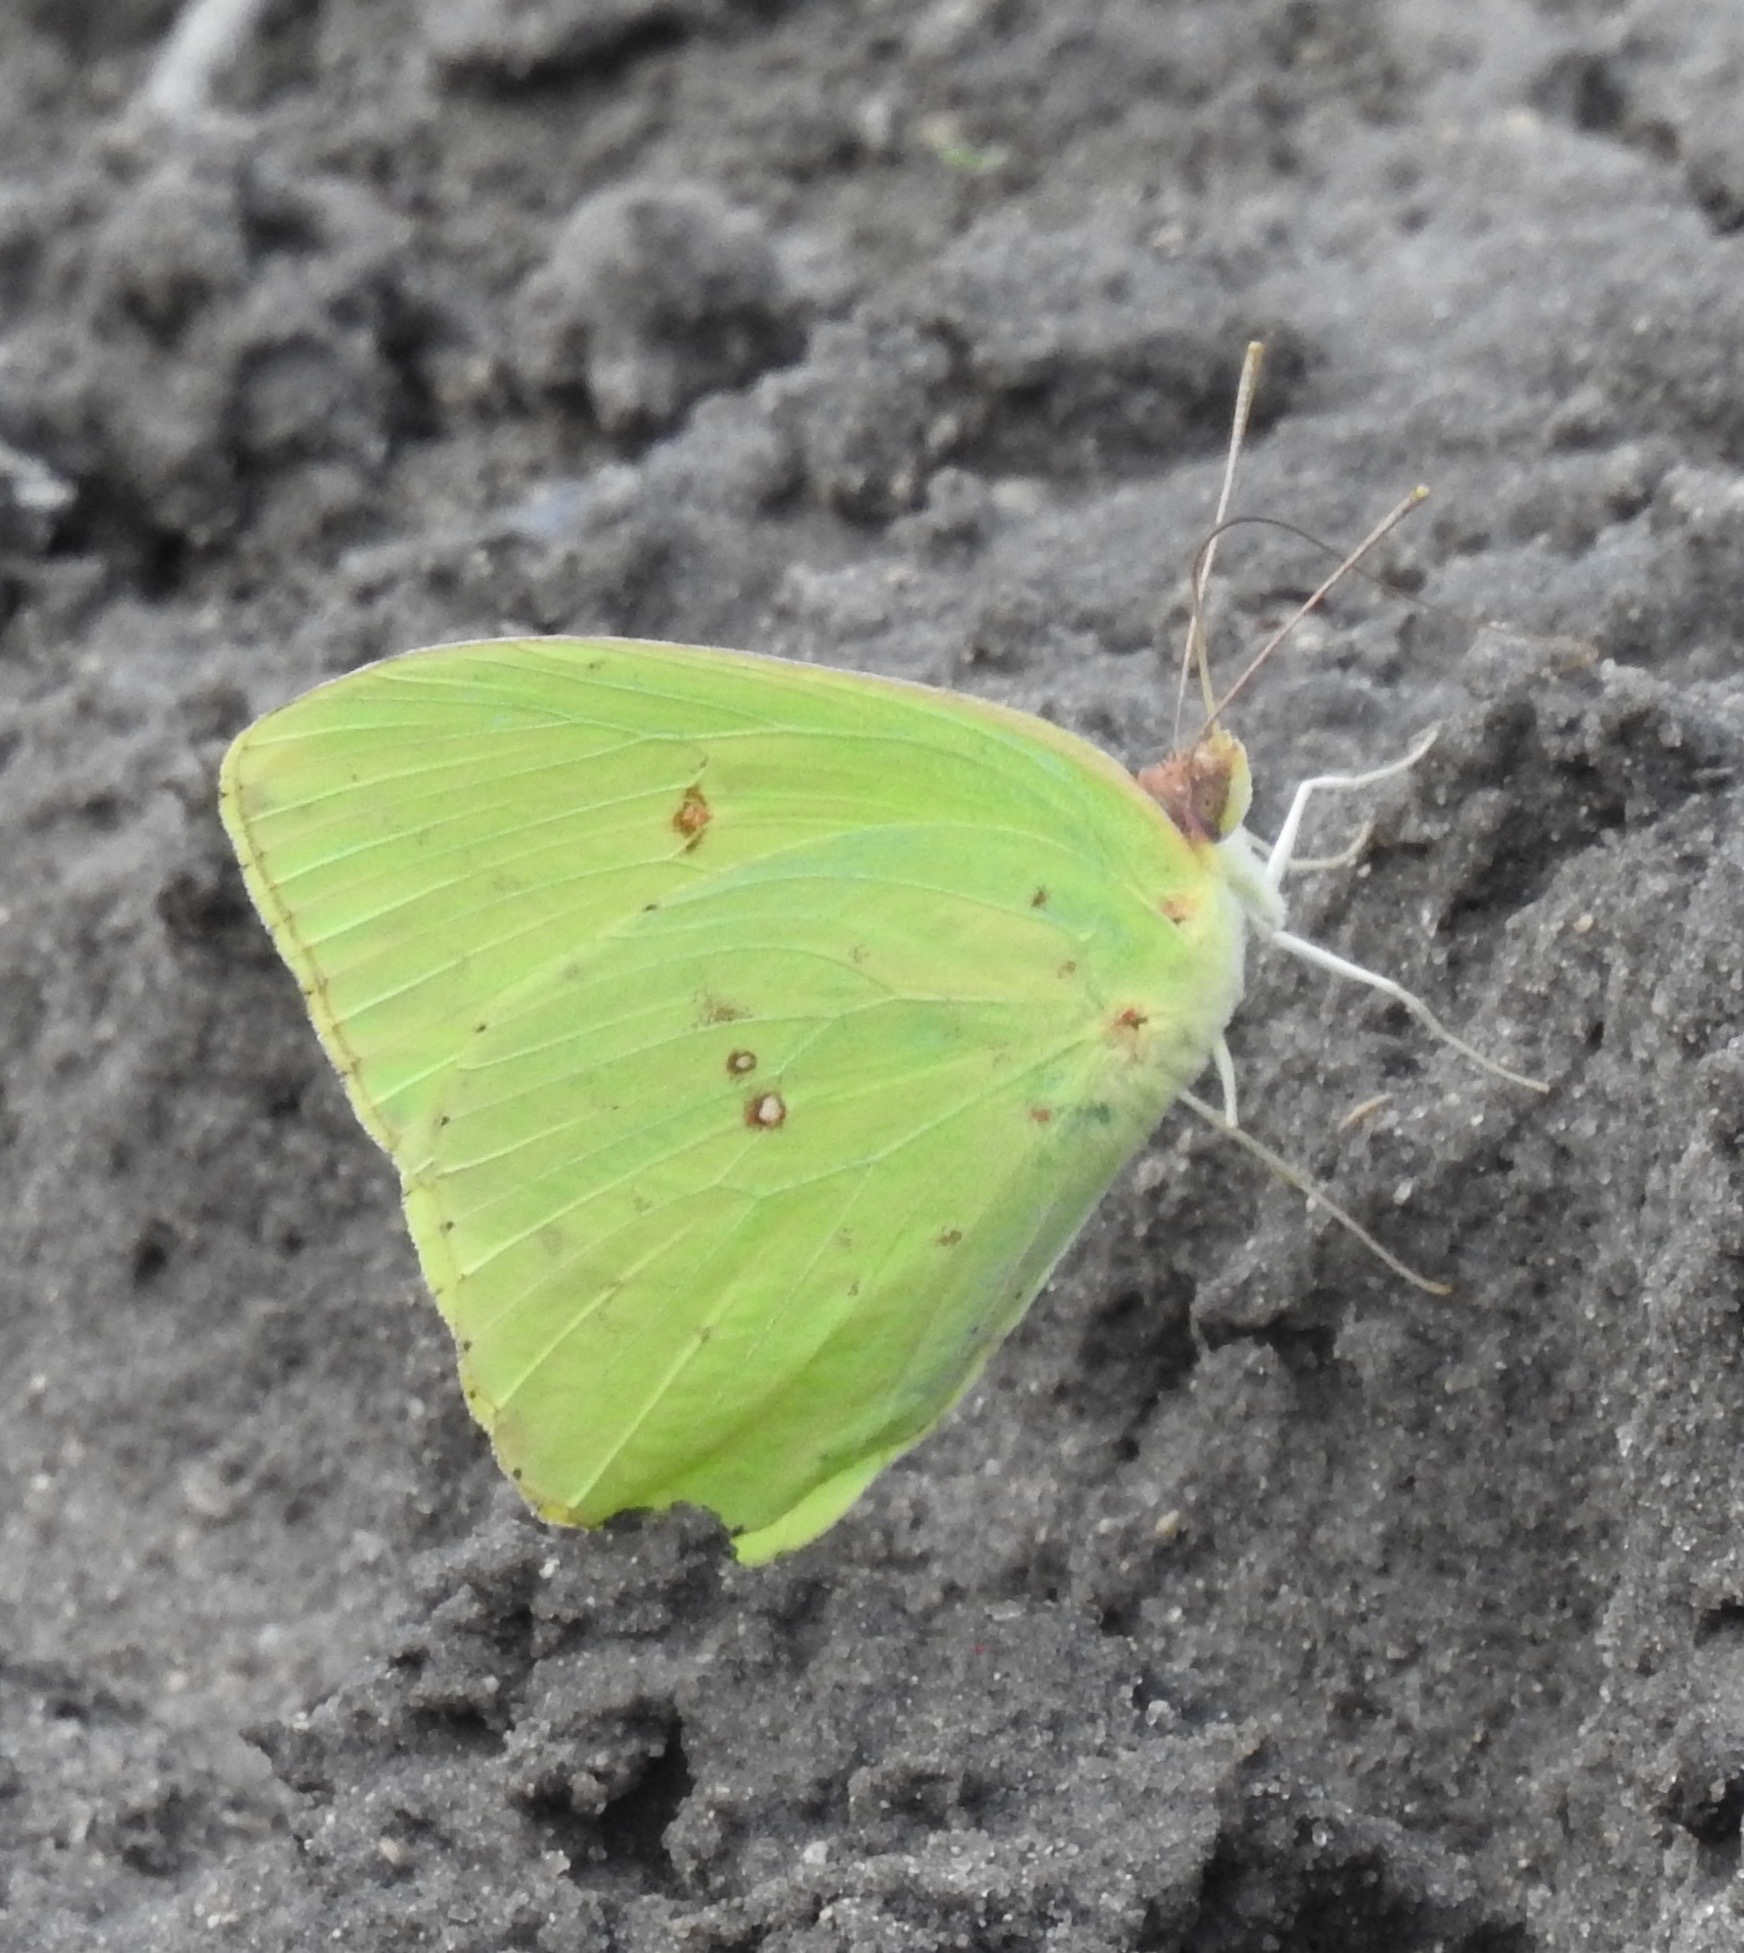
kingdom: Animalia
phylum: Arthropoda
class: Insecta
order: Lepidoptera
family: Pieridae
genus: Phoebis
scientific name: Phoebis sennae
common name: Cloudless sulphur
